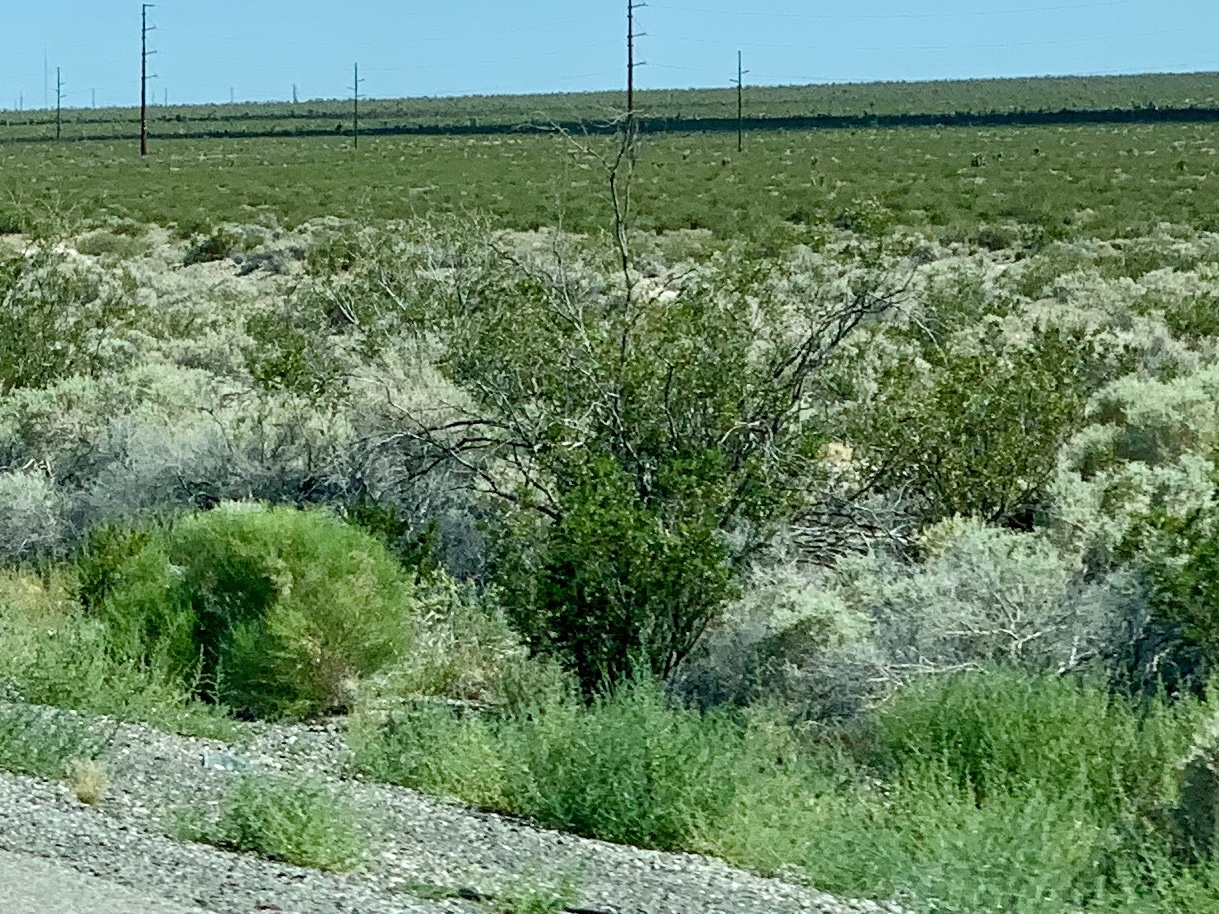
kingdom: Plantae
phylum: Tracheophyta
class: Magnoliopsida
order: Zygophyllales
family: Zygophyllaceae
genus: Larrea
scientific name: Larrea tridentata
